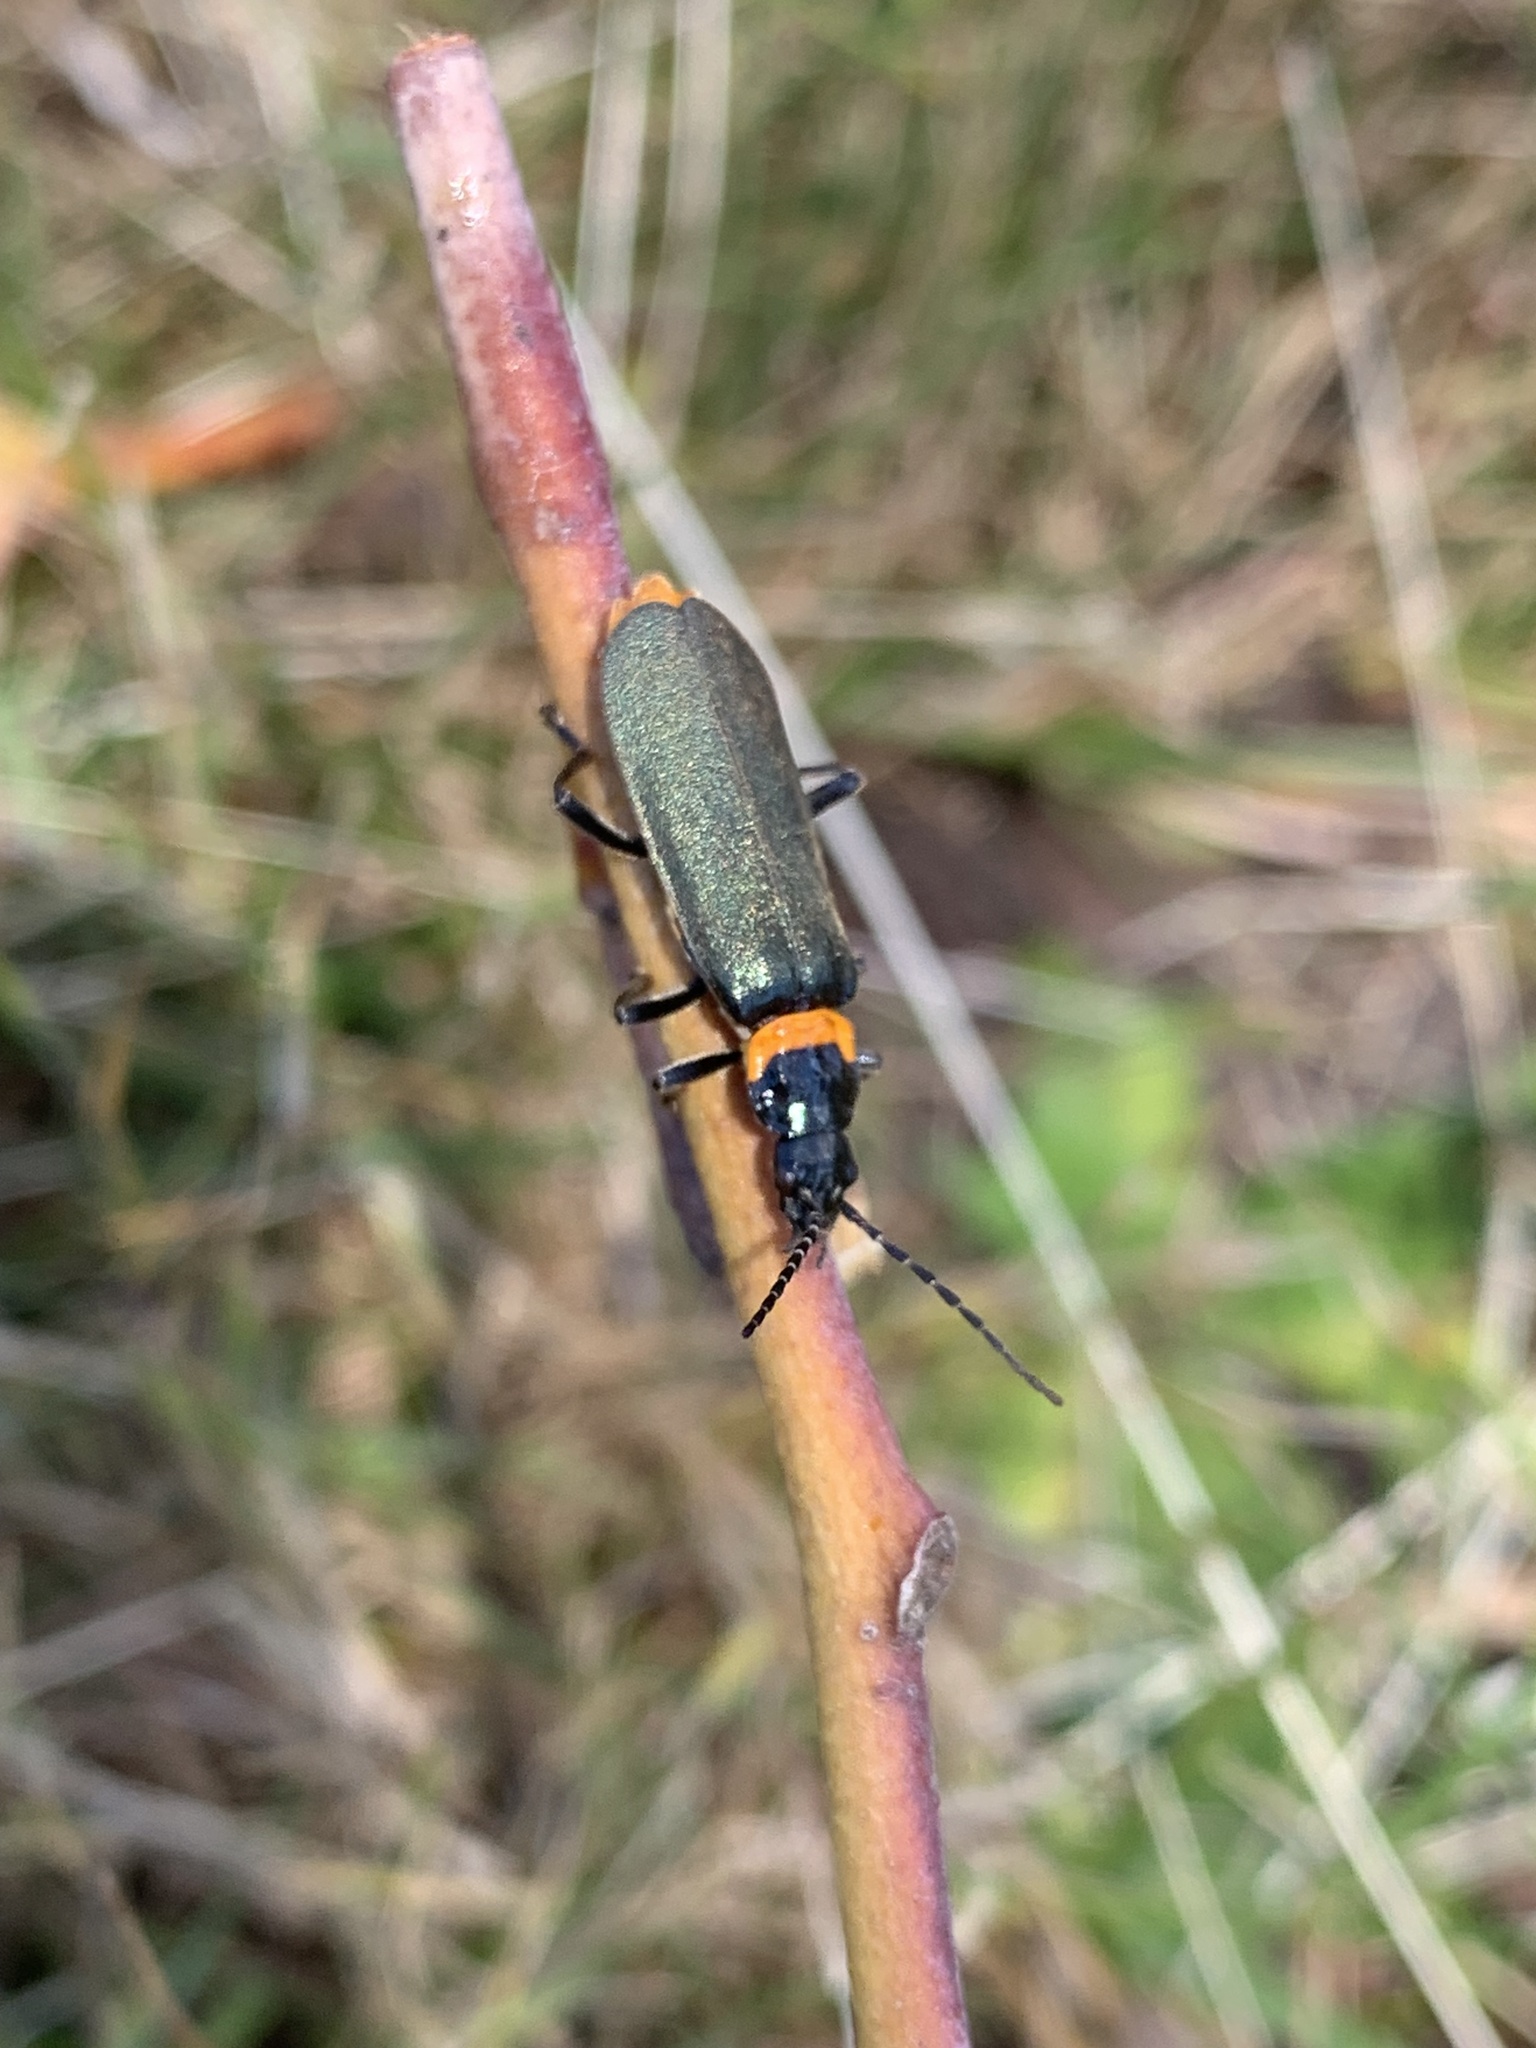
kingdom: Animalia
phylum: Arthropoda
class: Insecta
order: Coleoptera
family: Cantharidae
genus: Chauliognathus
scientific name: Chauliognathus
